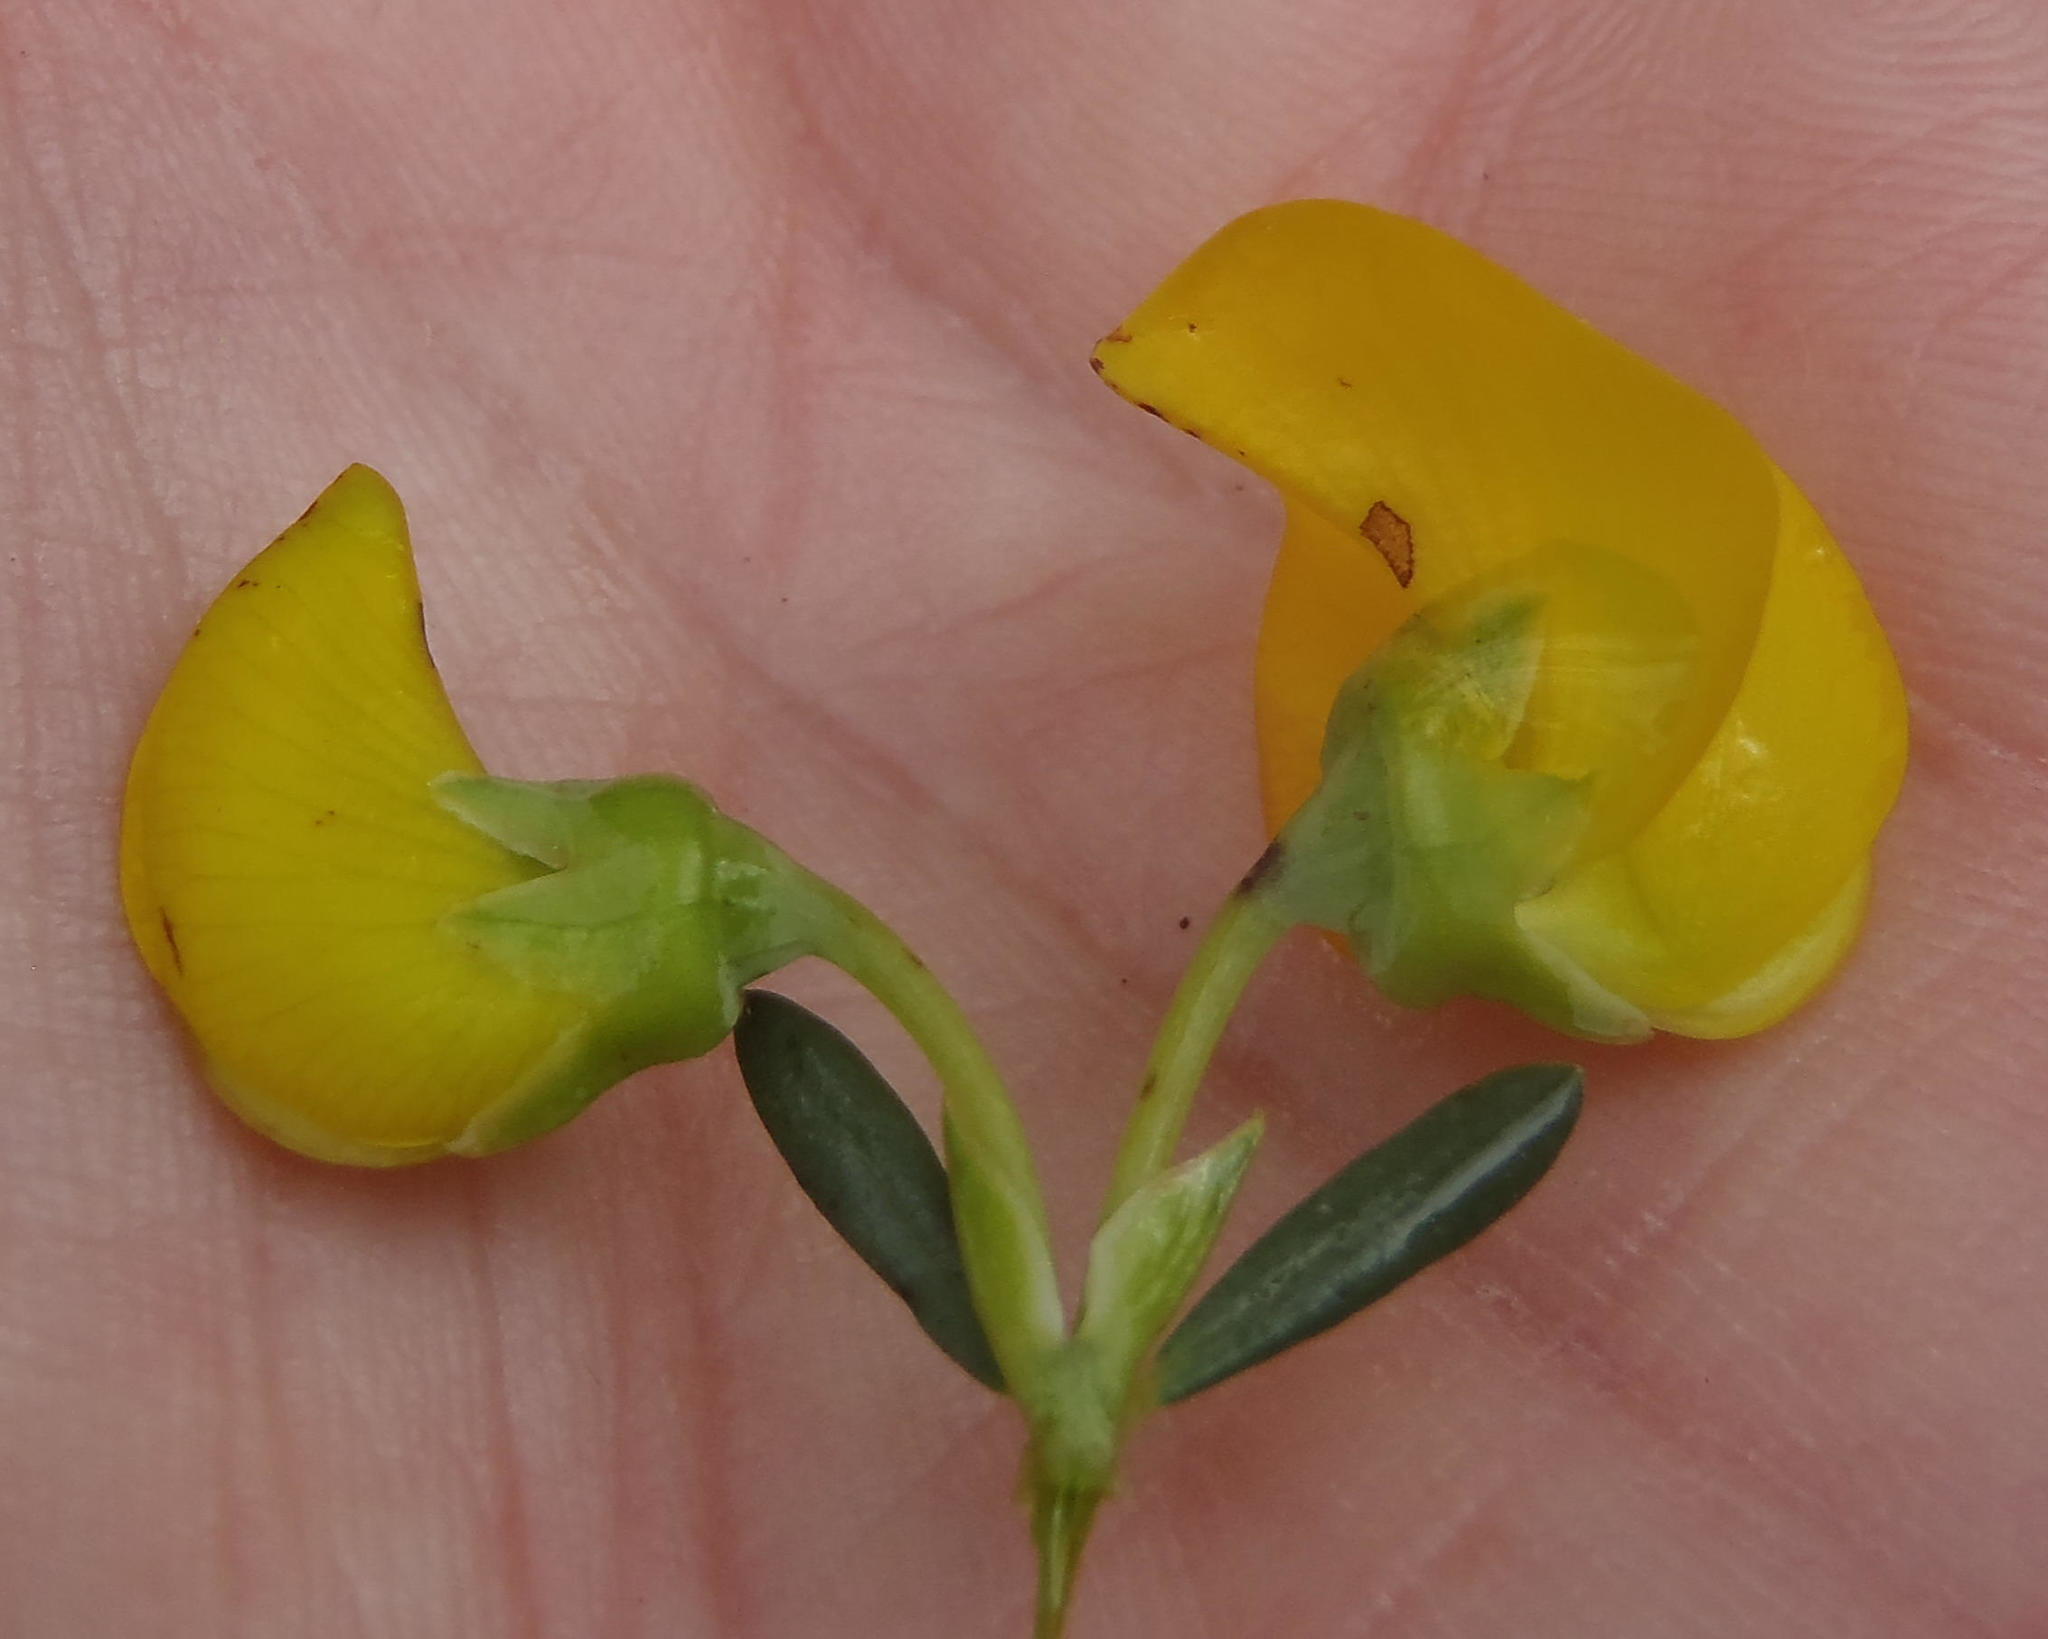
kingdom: Plantae
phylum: Tracheophyta
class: Magnoliopsida
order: Fabales
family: Fabaceae
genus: Cyclopia
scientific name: Cyclopia subternata
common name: Honeybush tea
